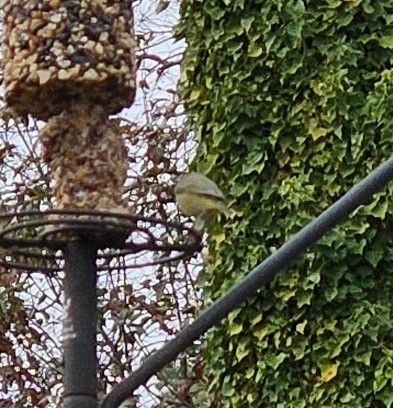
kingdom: Animalia
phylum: Chordata
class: Aves
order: Passeriformes
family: Parulidae
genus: Leiothlypis
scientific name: Leiothlypis celata
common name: Orange-crowned warbler
